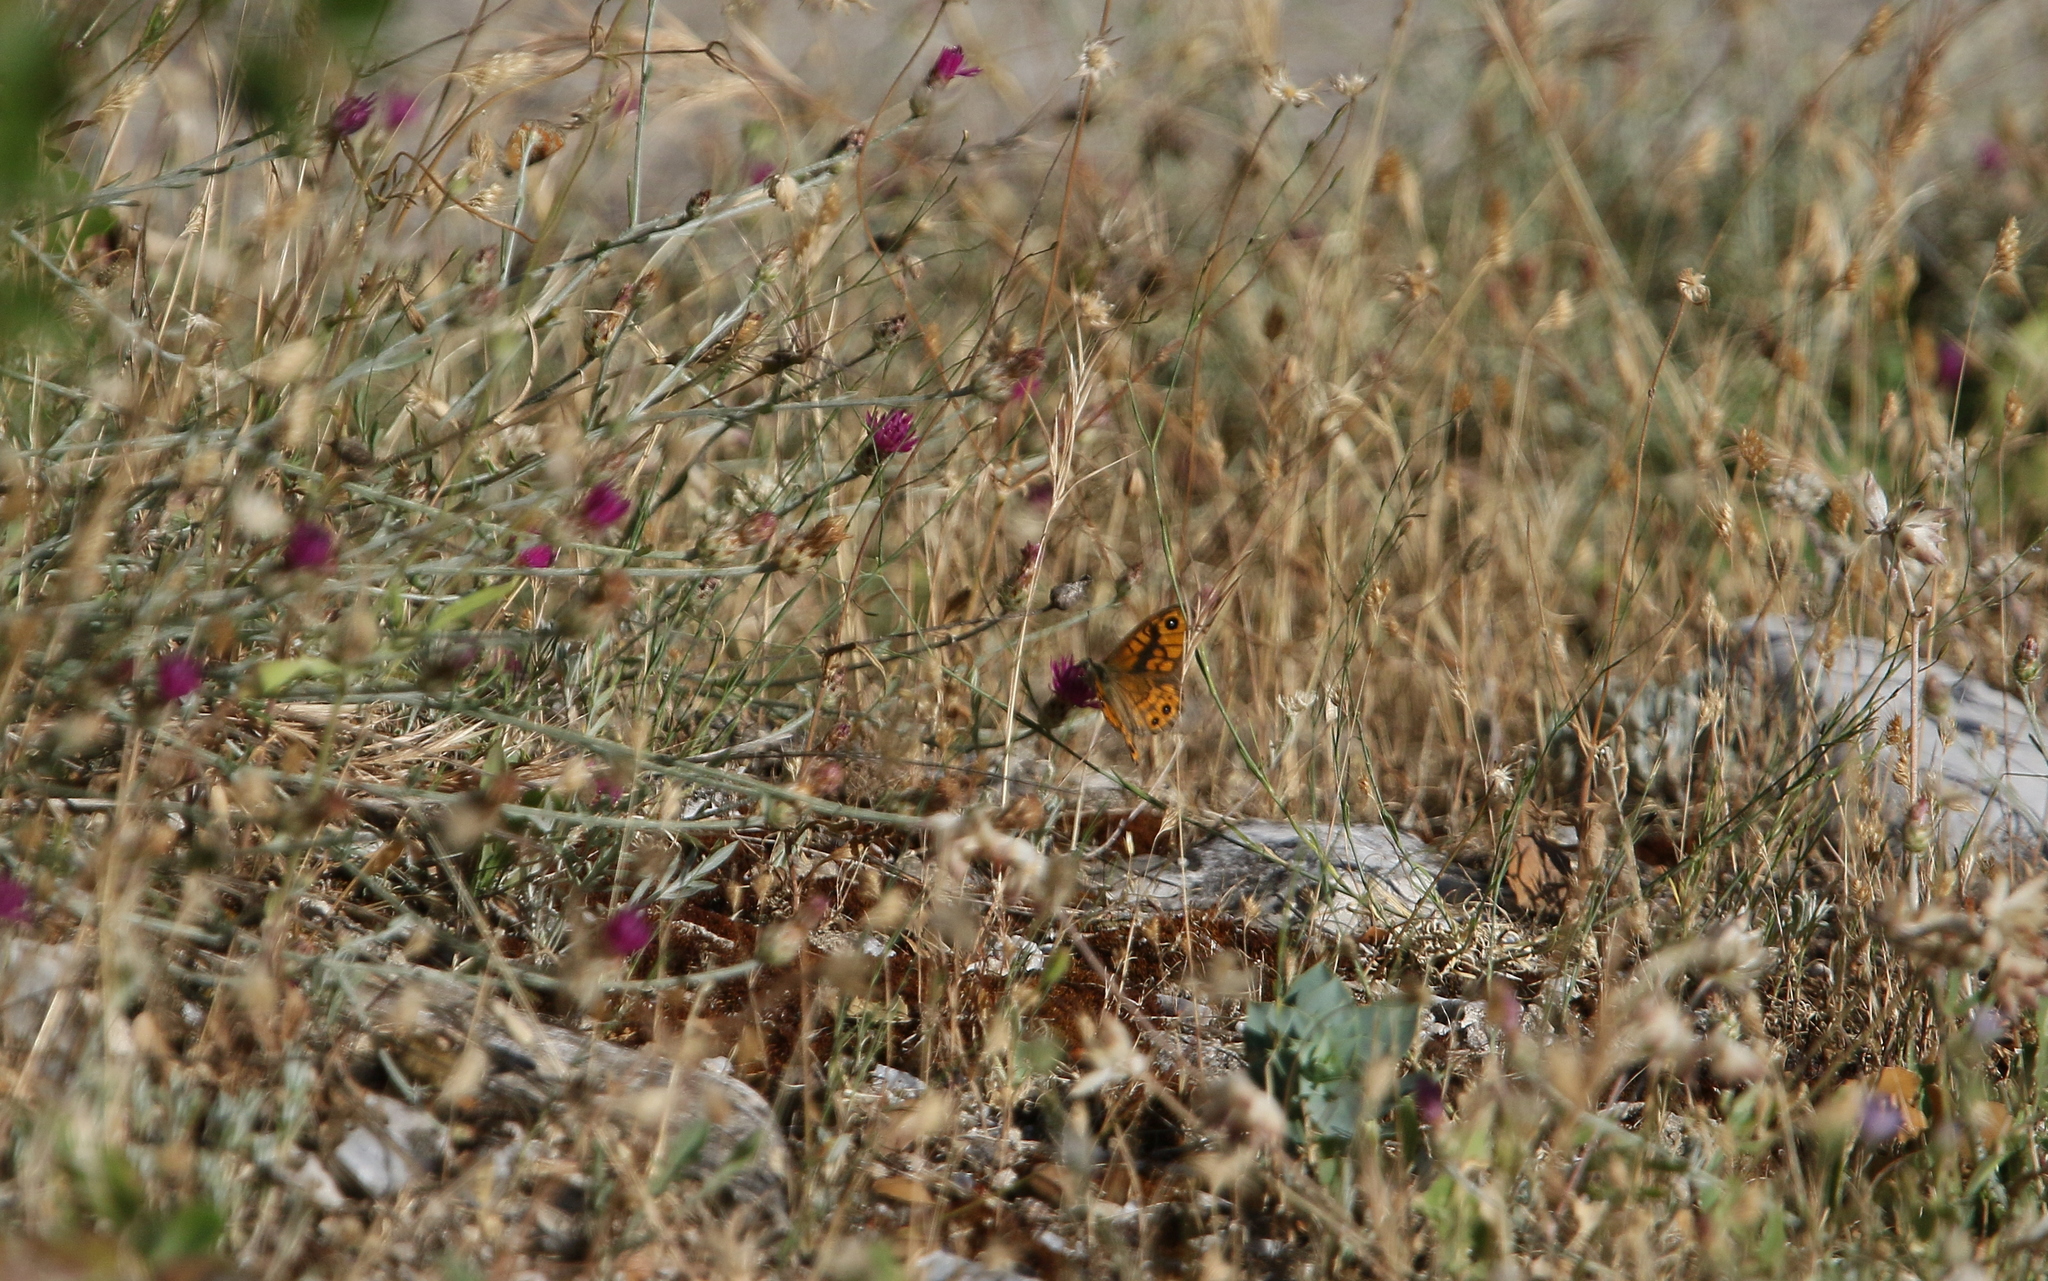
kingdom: Animalia
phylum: Arthropoda
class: Insecta
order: Lepidoptera
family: Nymphalidae
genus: Pararge
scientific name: Pararge Lasiommata megera
